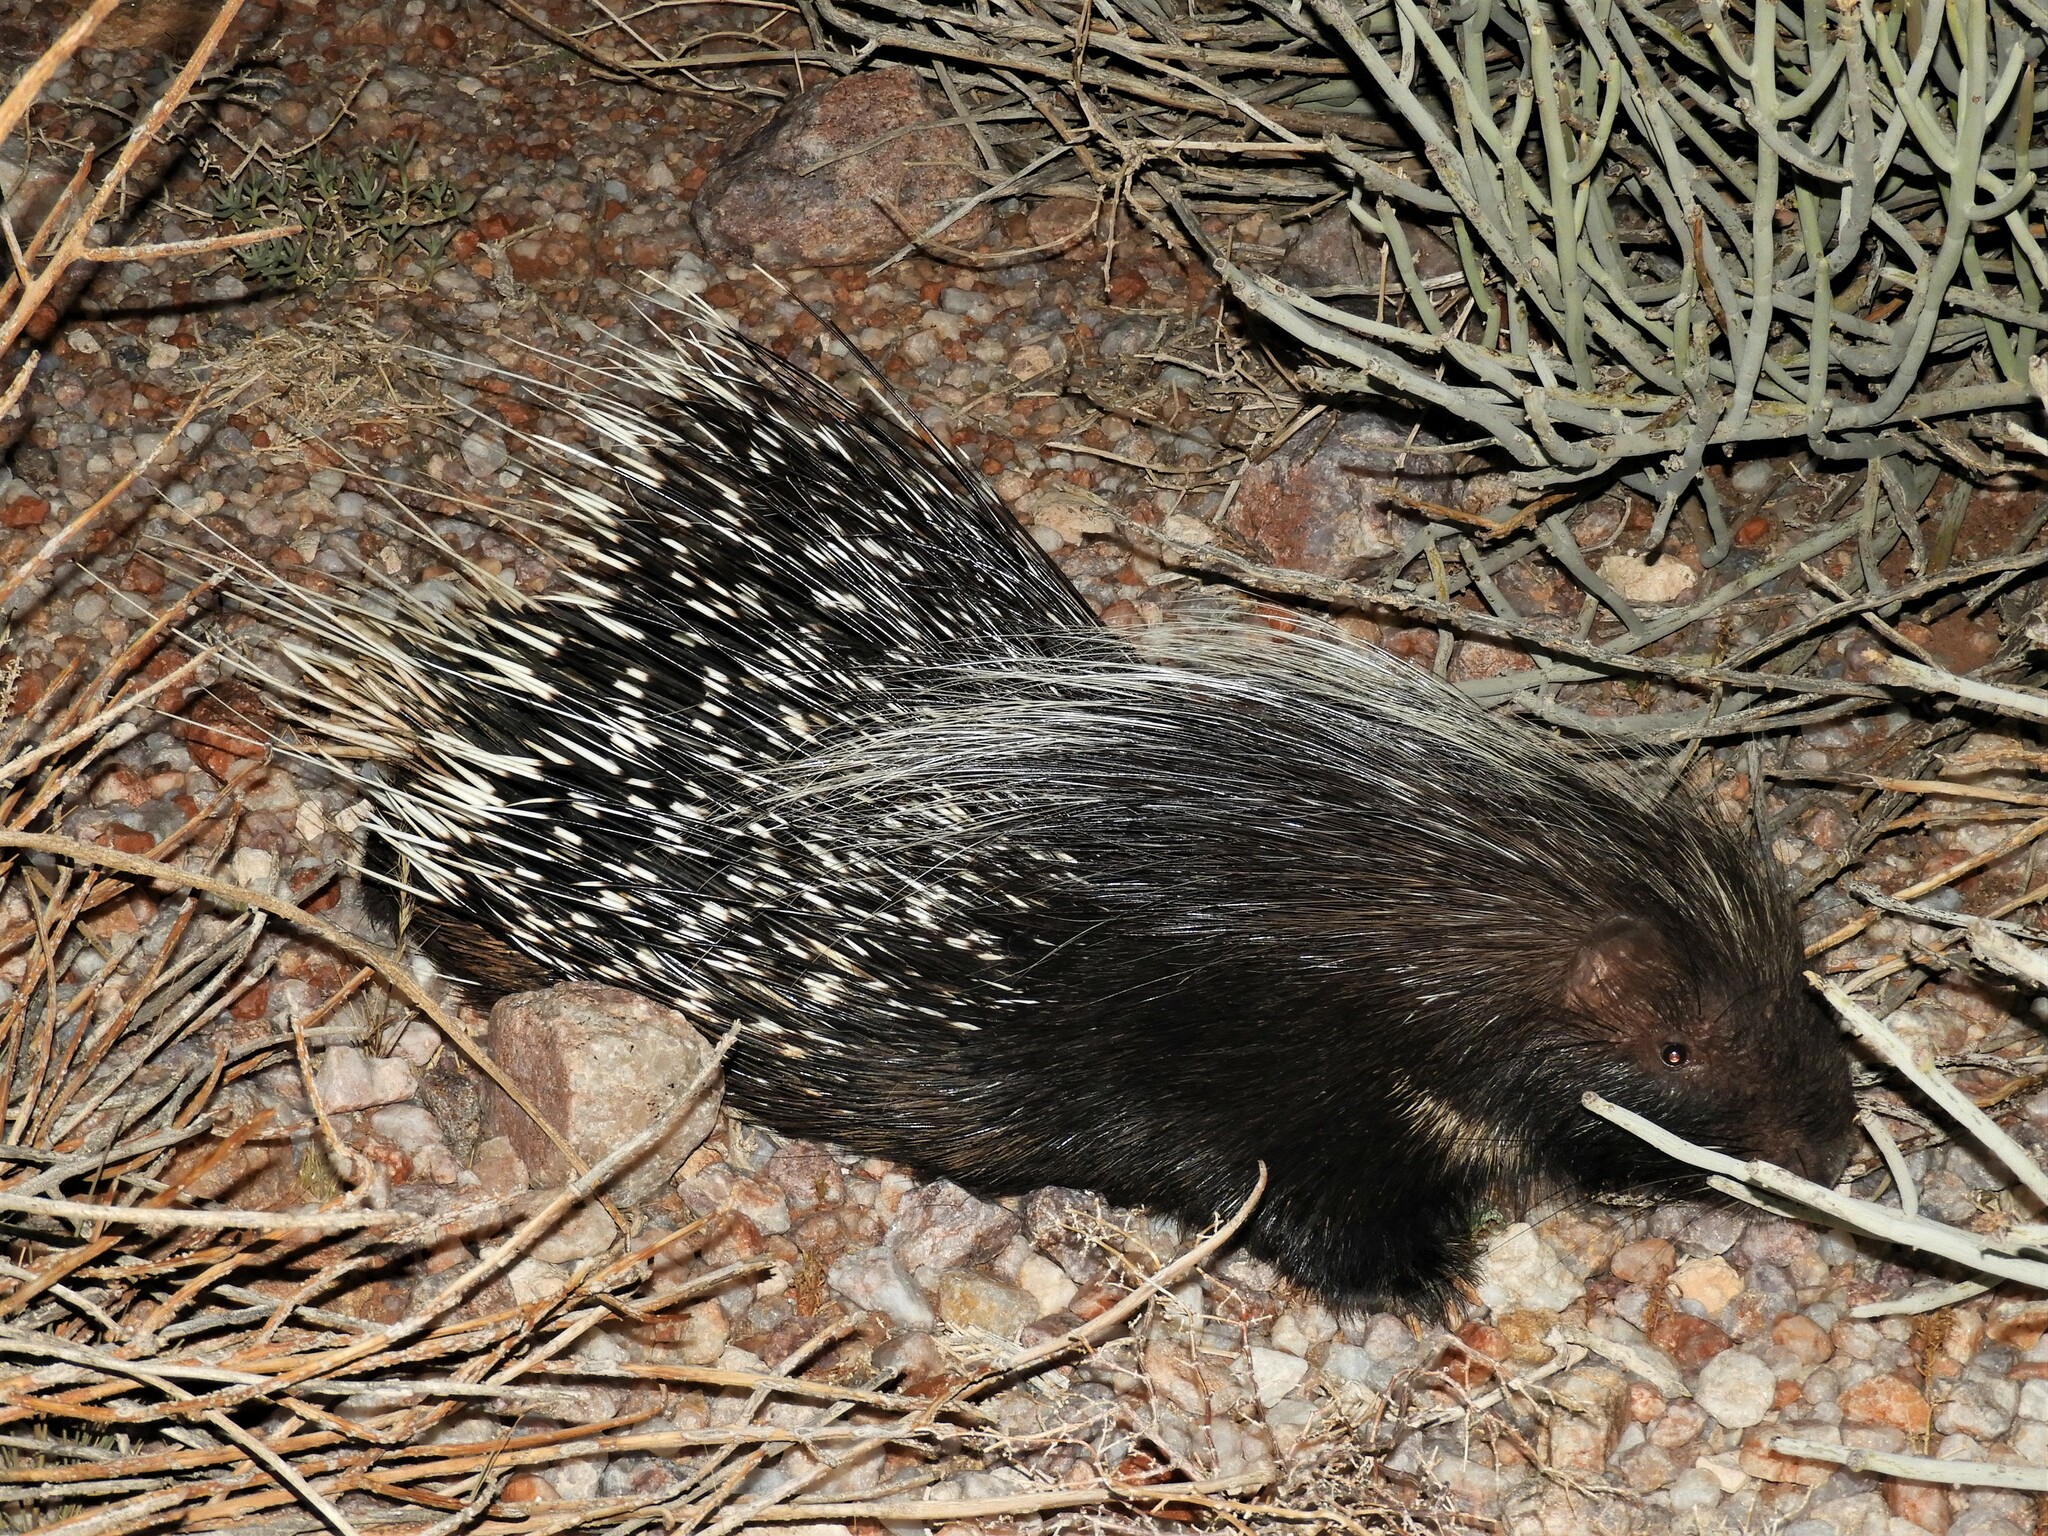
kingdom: Animalia
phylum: Chordata
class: Mammalia
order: Rodentia
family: Hystricidae
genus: Hystrix
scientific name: Hystrix africaeaustralis
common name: Cape porcupine
